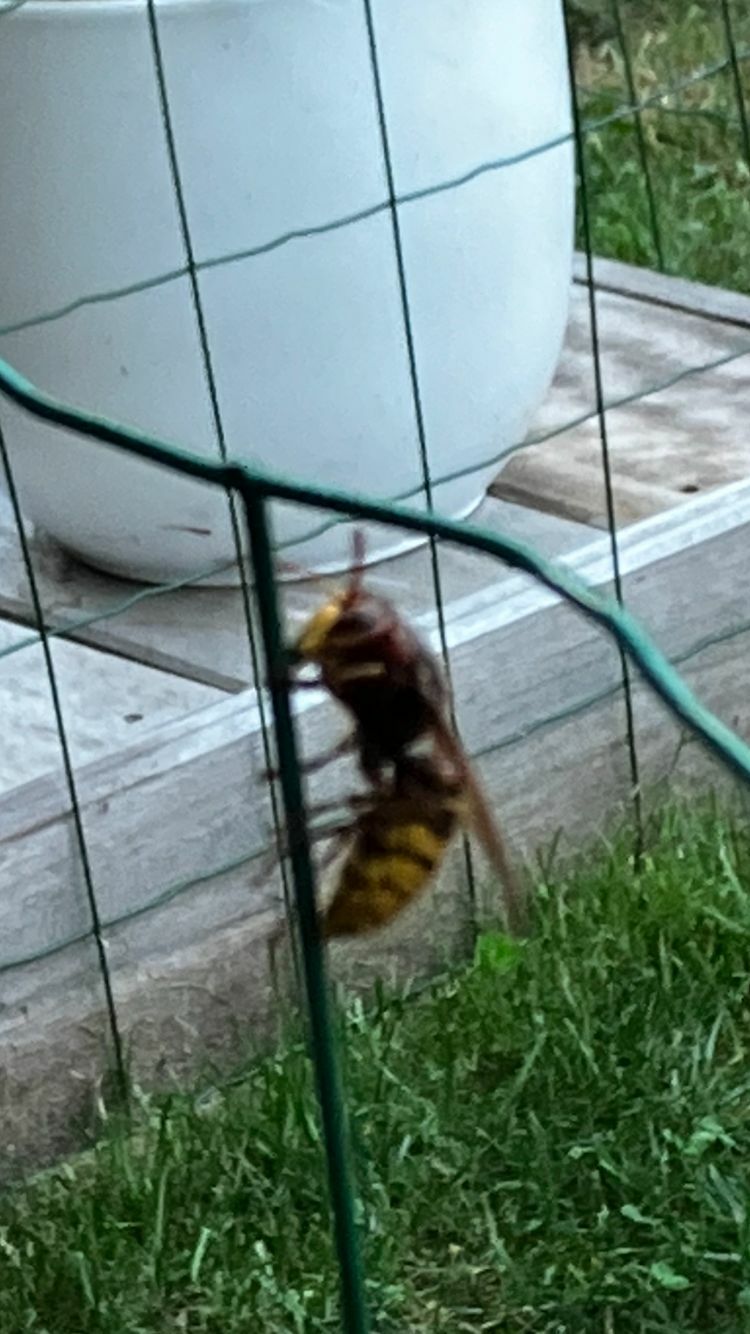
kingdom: Animalia
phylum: Arthropoda
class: Insecta
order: Hymenoptera
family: Vespidae
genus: Vespa
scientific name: Vespa crabro
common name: Hornet
